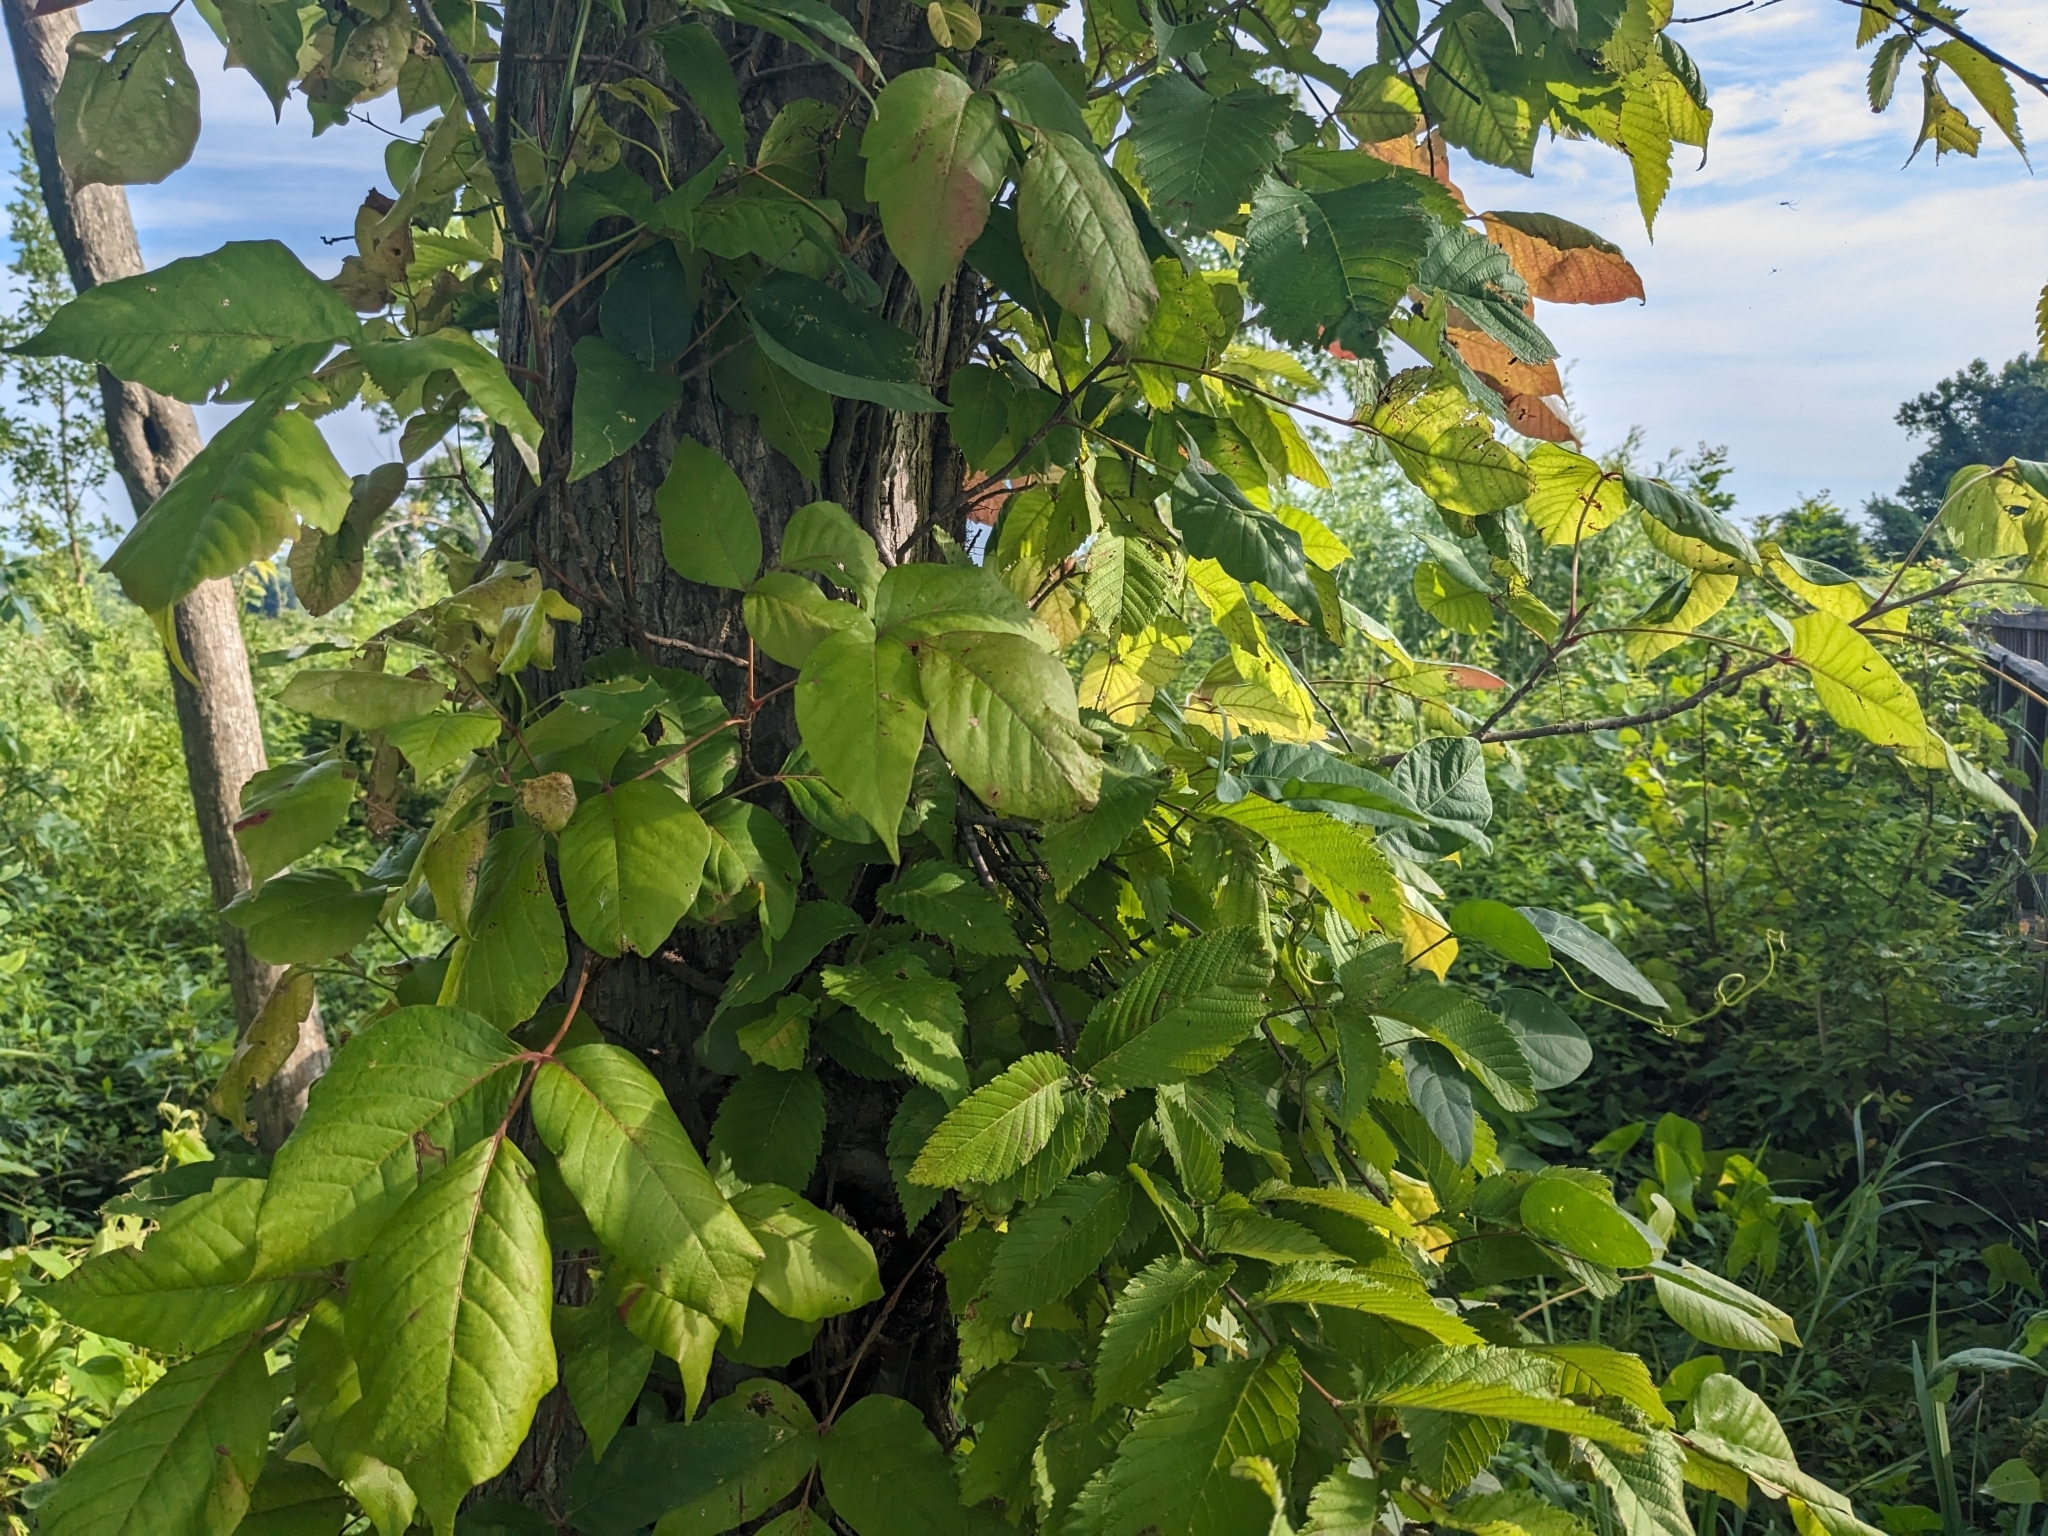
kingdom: Plantae
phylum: Tracheophyta
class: Magnoliopsida
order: Sapindales
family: Anacardiaceae
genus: Toxicodendron
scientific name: Toxicodendron radicans
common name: Poison ivy
